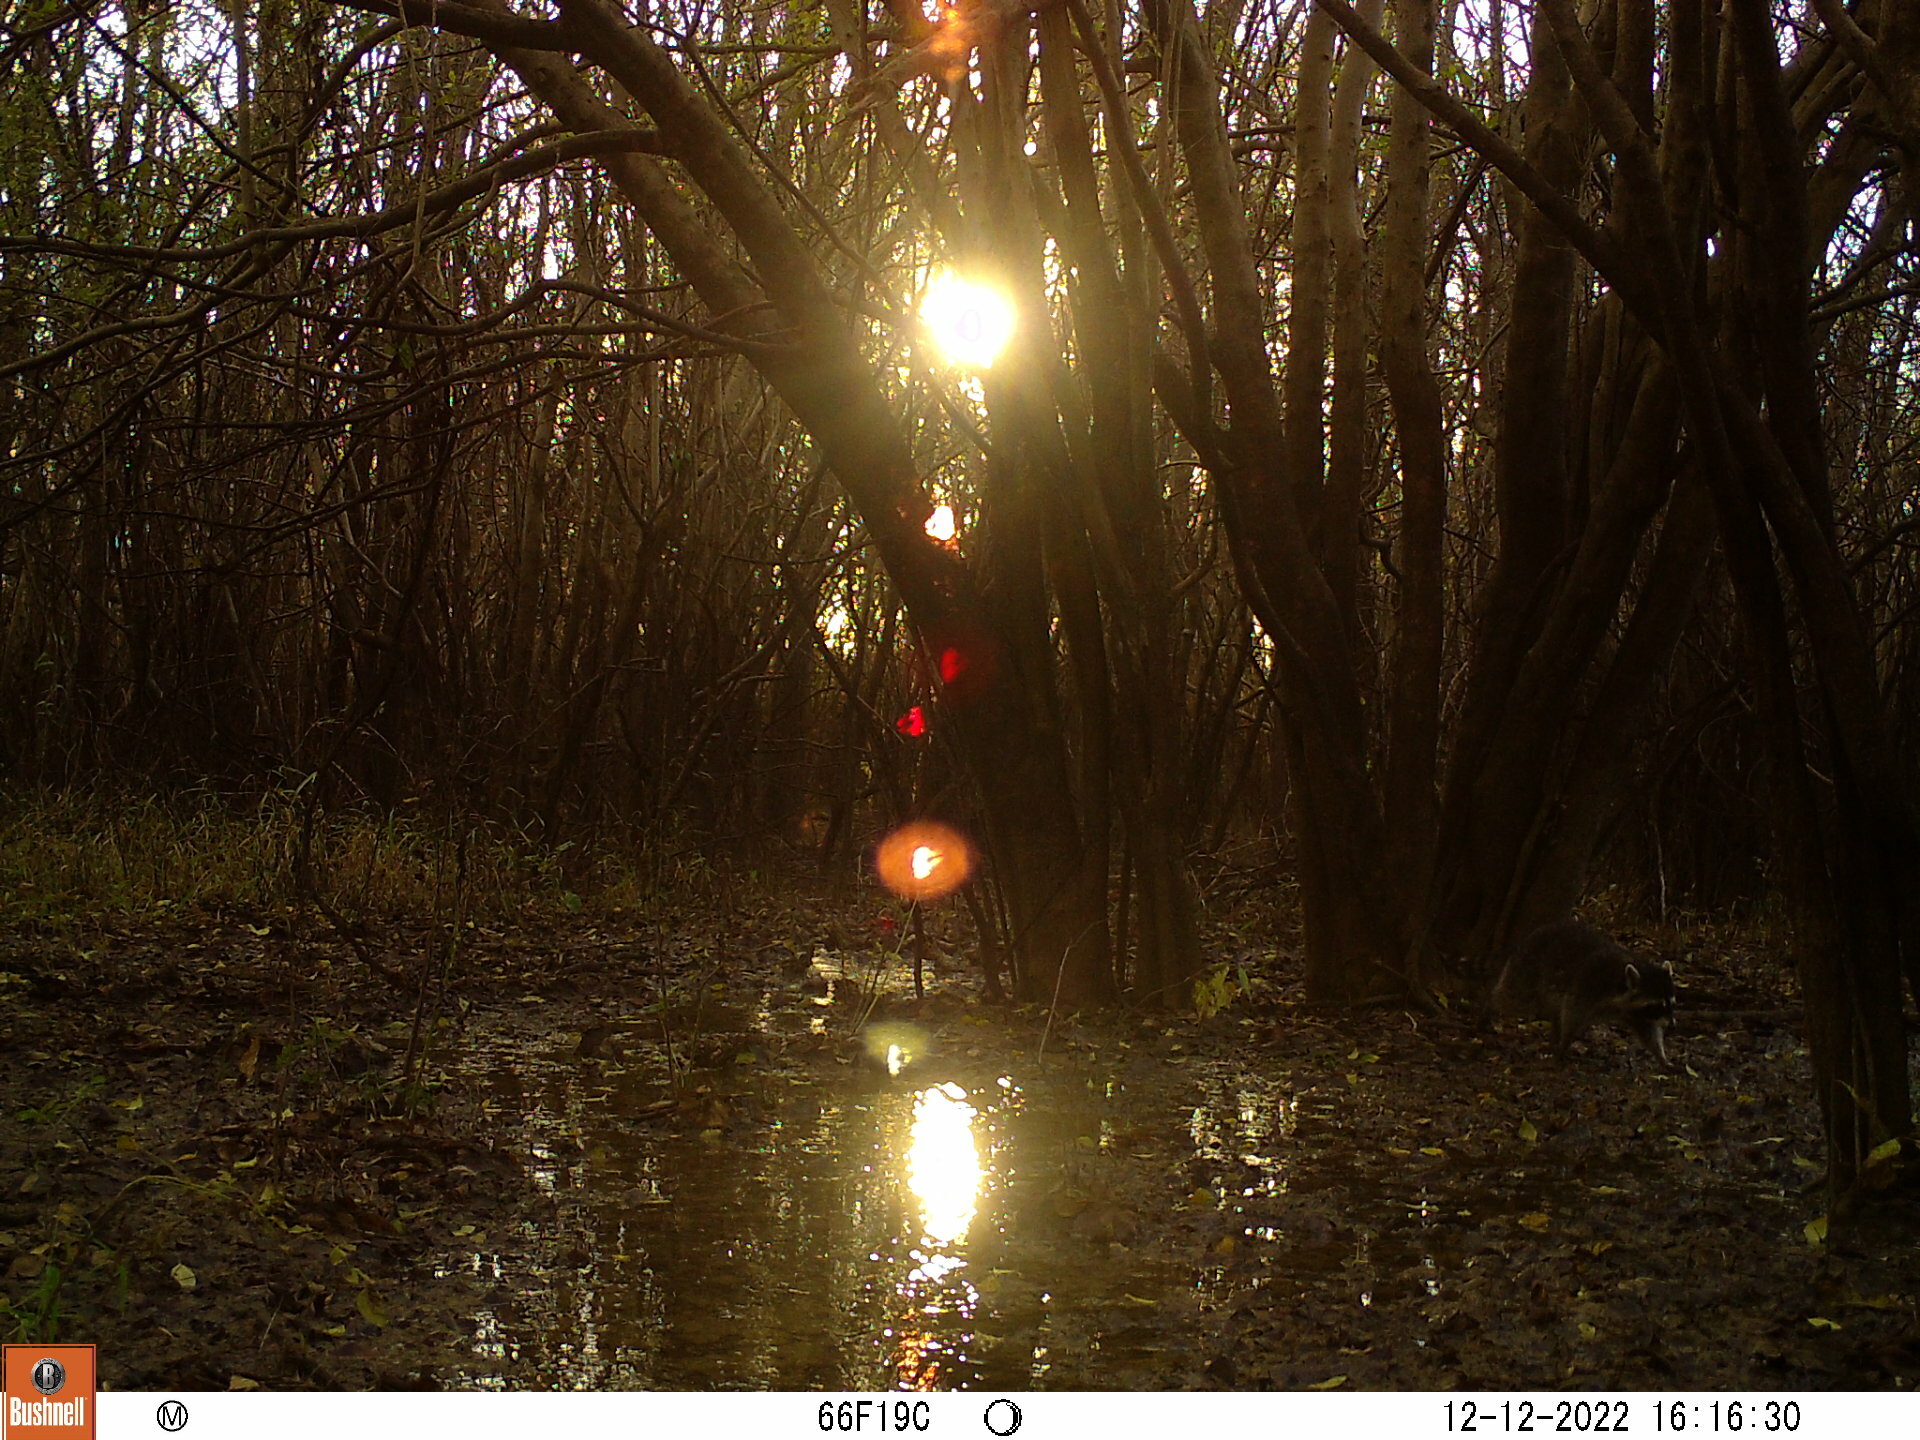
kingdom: Animalia
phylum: Chordata
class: Mammalia
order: Carnivora
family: Procyonidae
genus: Procyon
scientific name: Procyon lotor
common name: Raccoon
